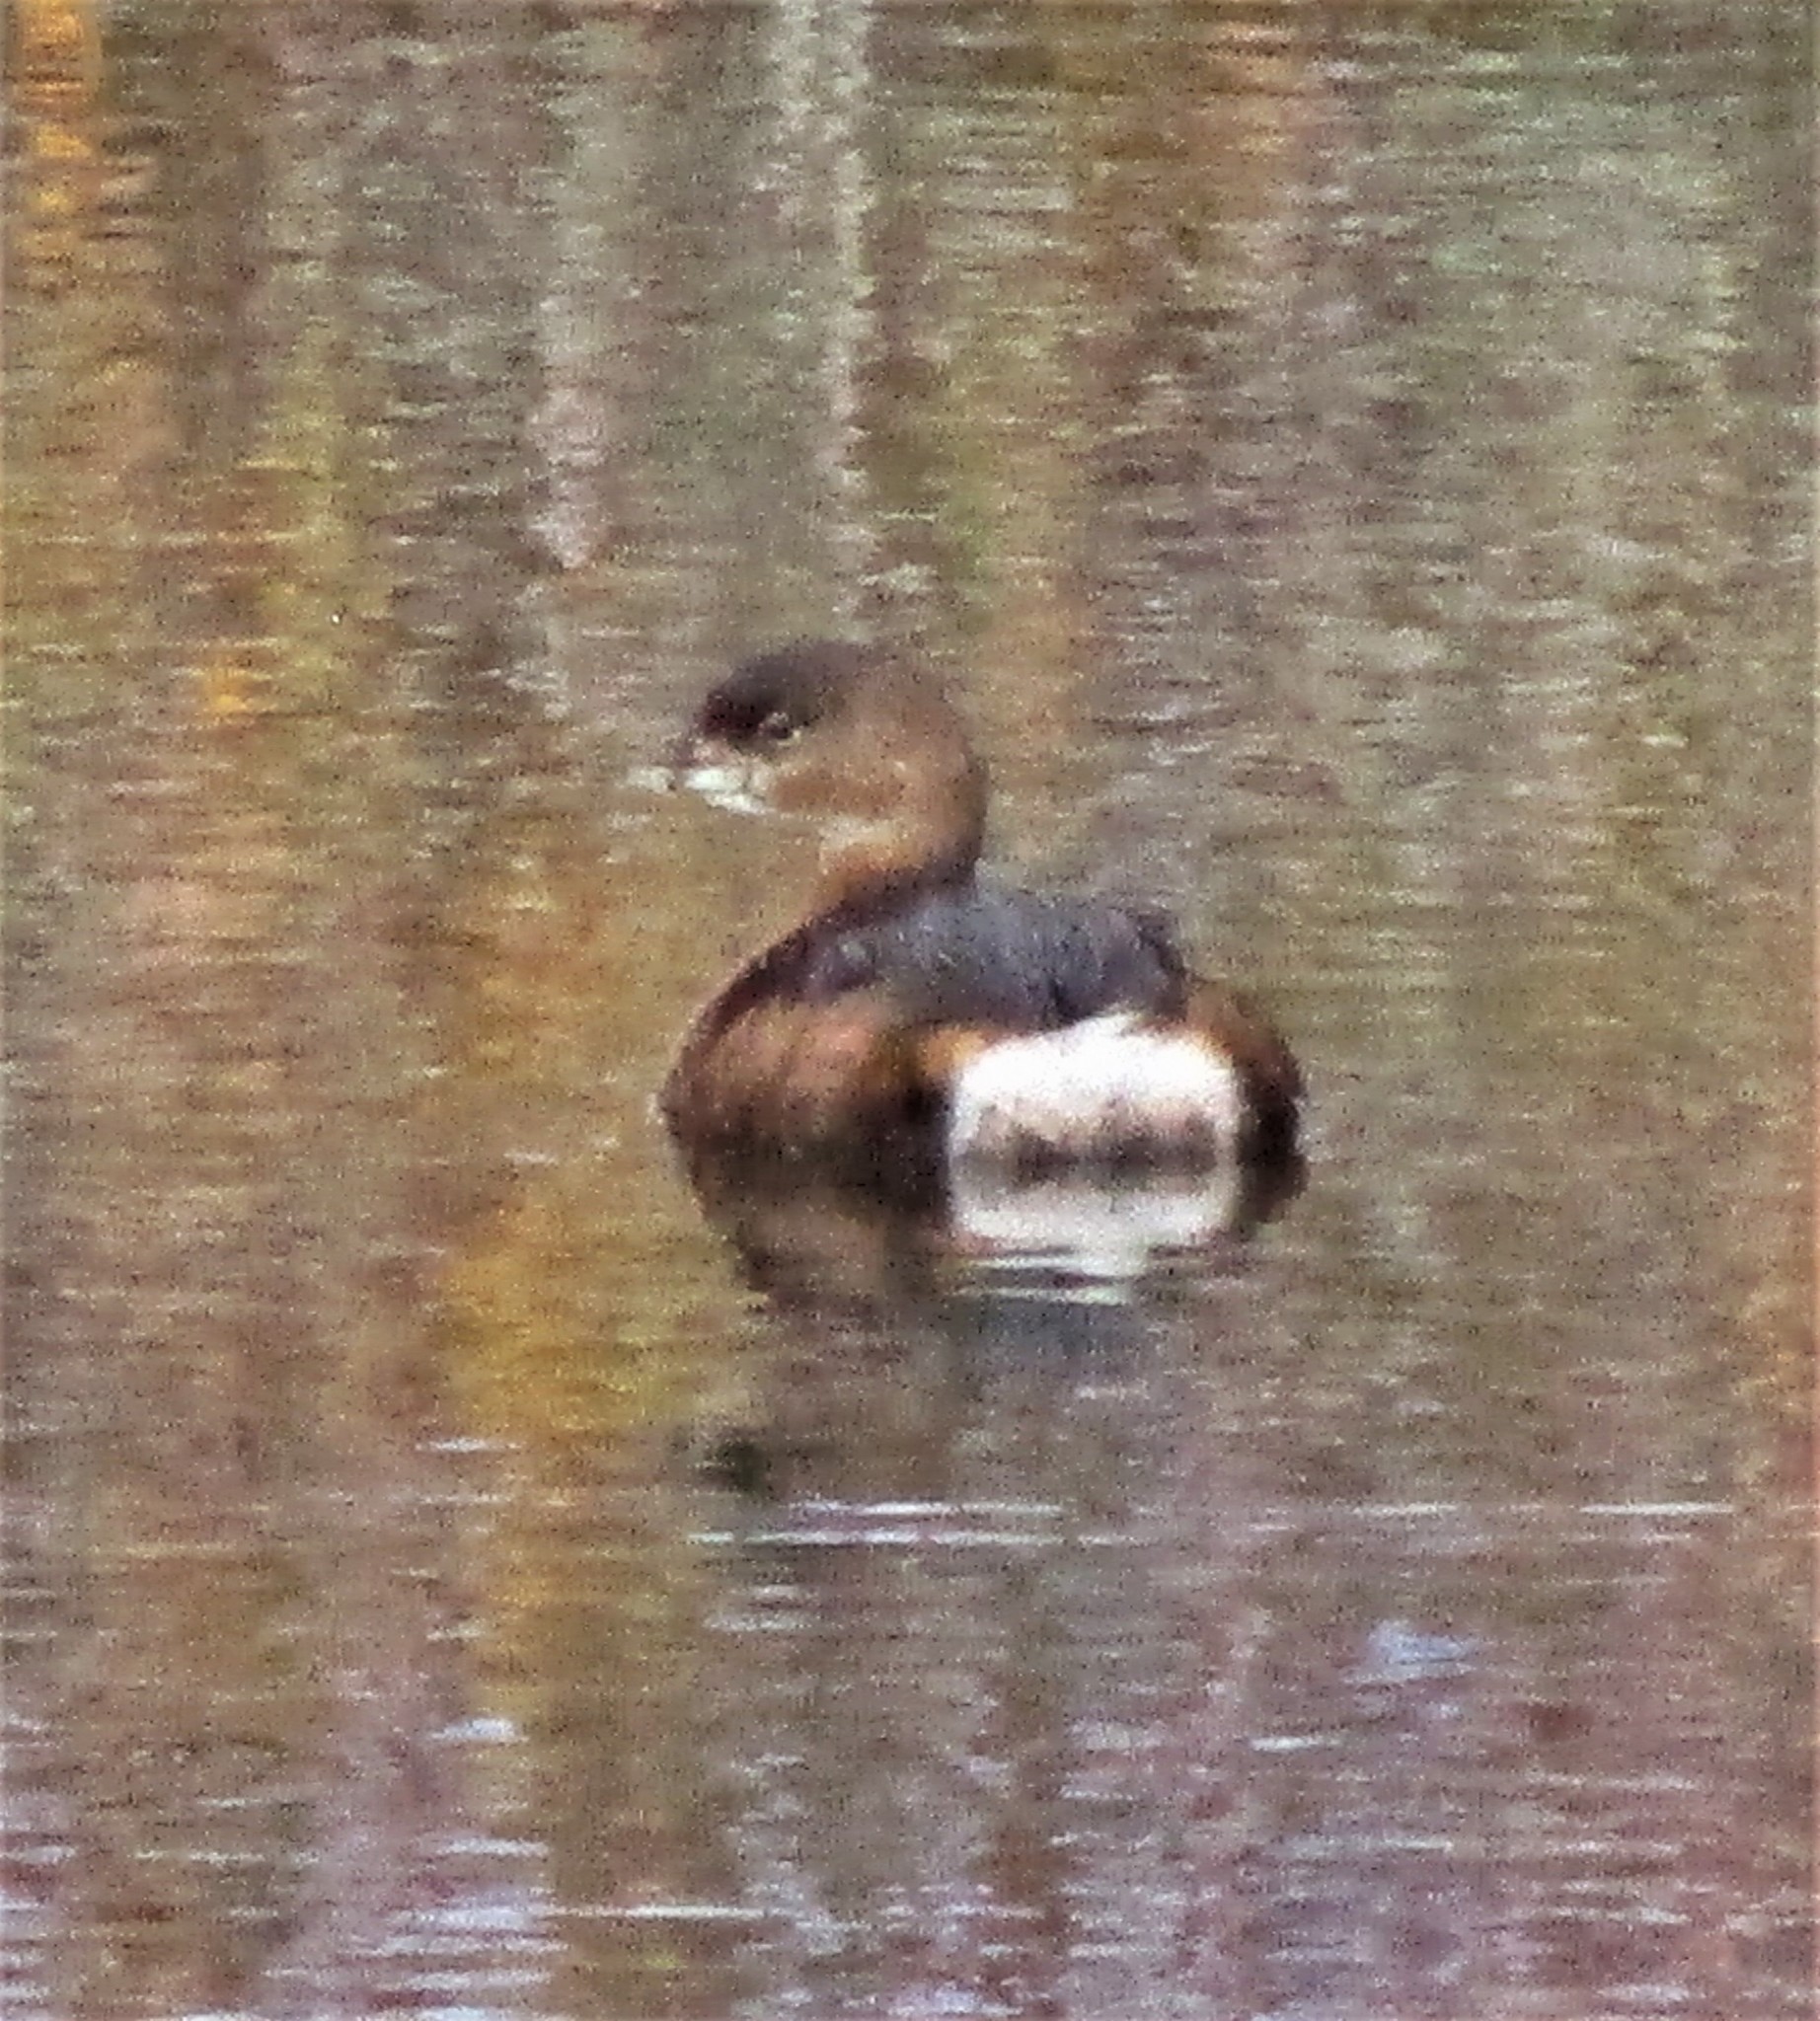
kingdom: Animalia
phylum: Chordata
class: Aves
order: Podicipediformes
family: Podicipedidae
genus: Podilymbus
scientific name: Podilymbus podiceps
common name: Pied-billed grebe
